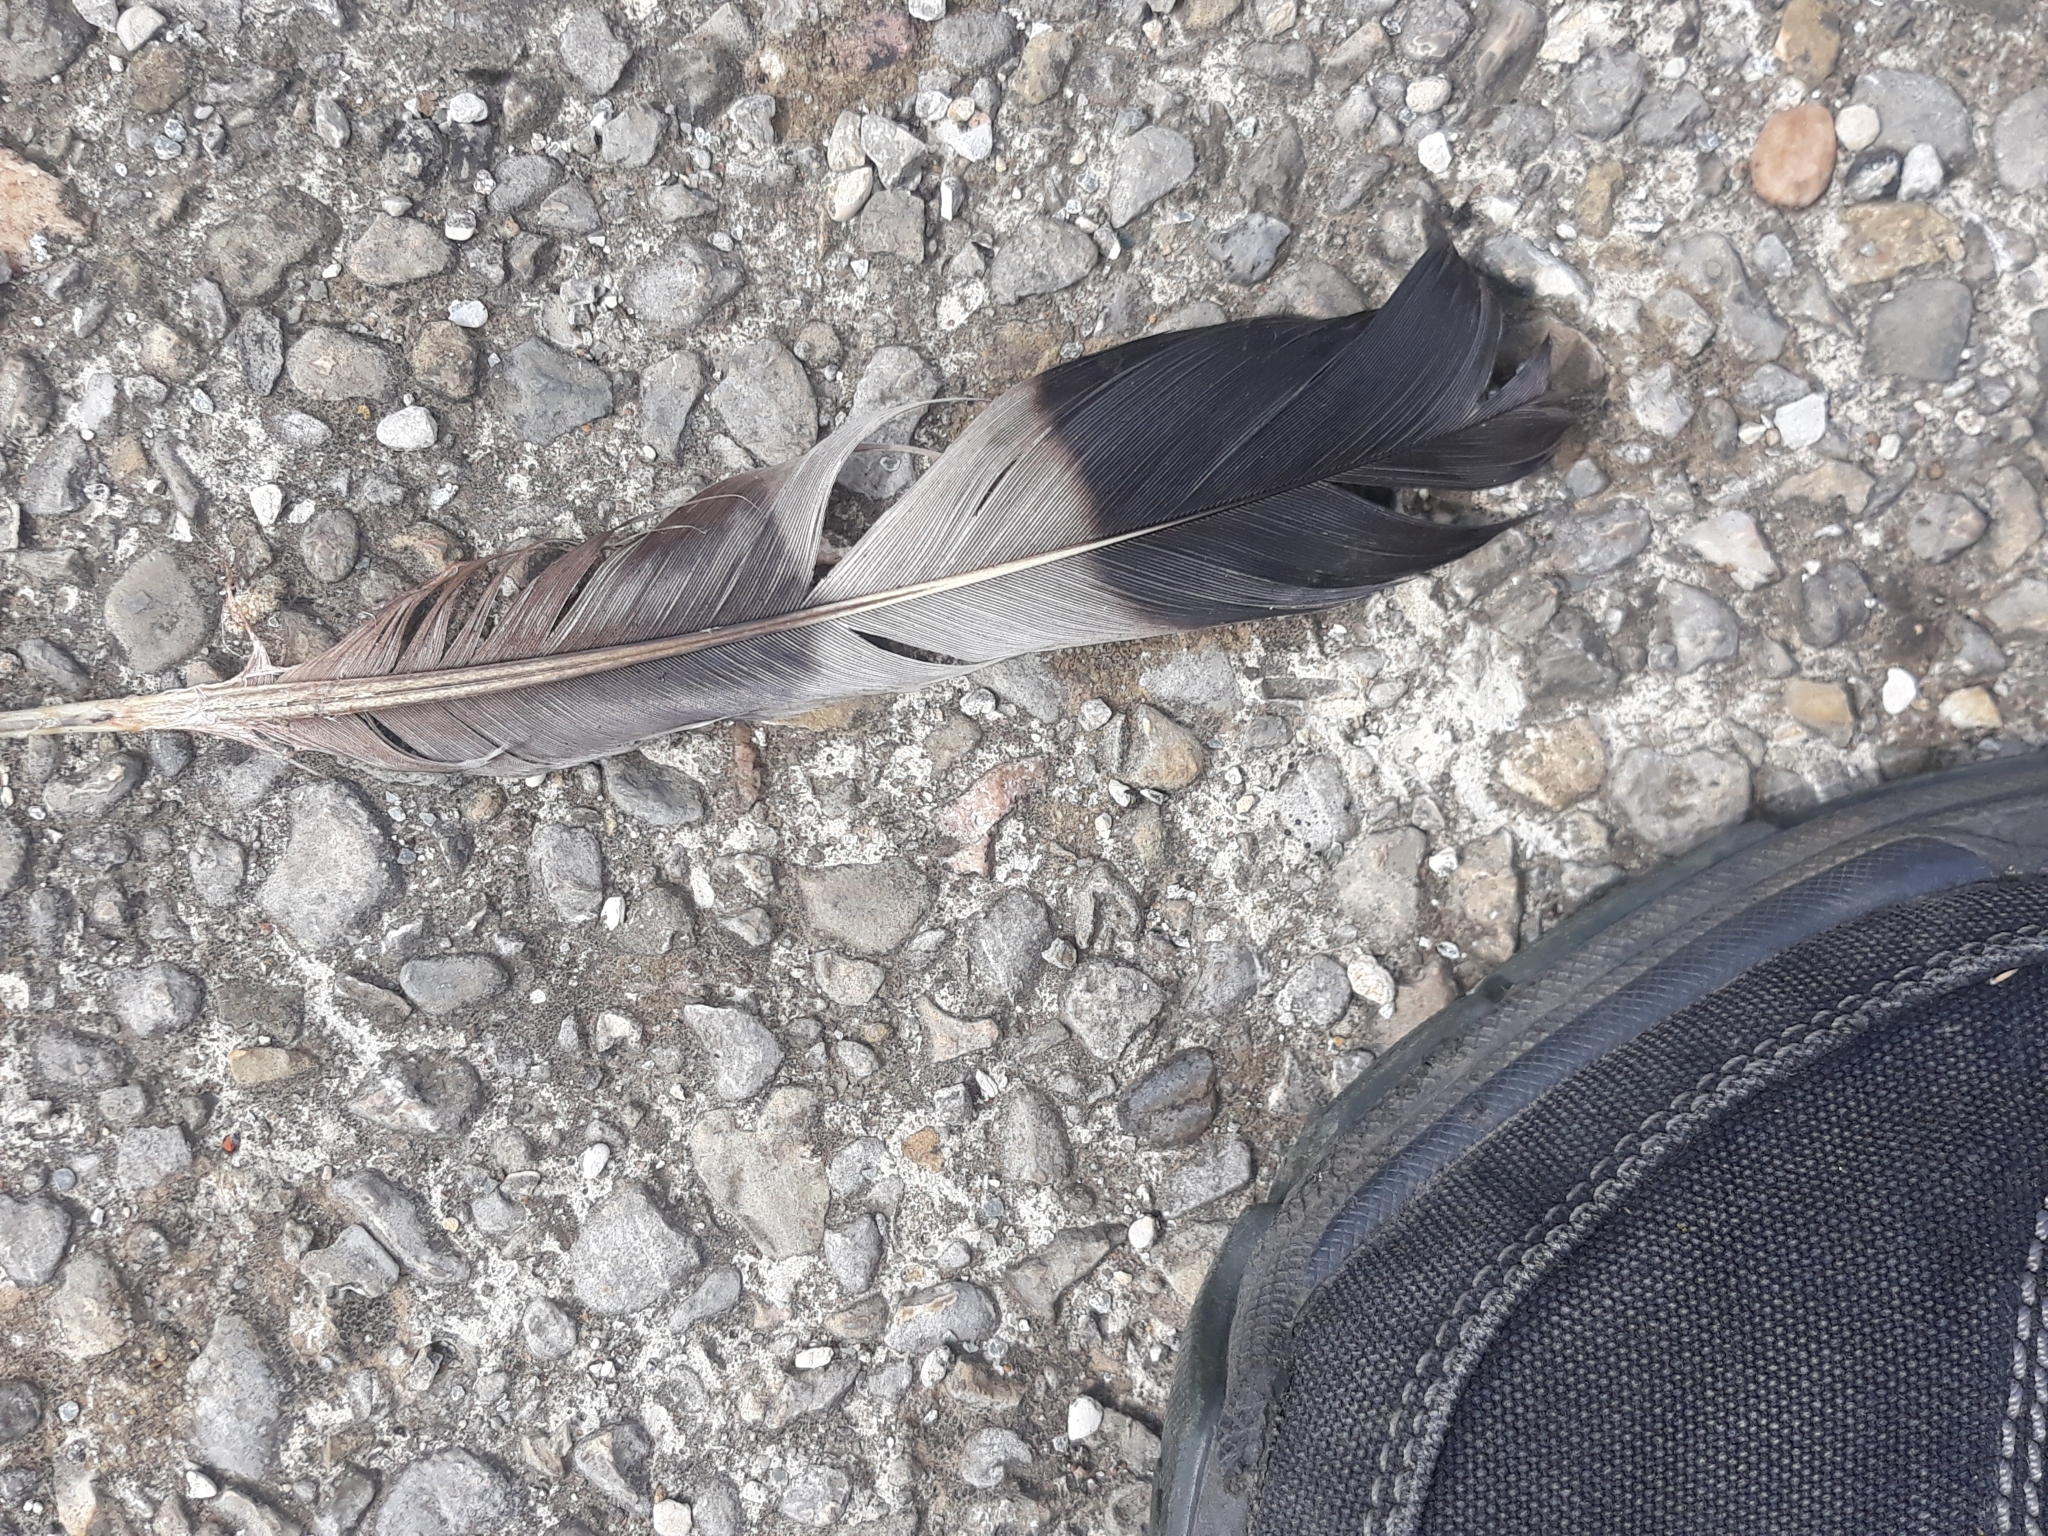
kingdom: Animalia
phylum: Chordata
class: Aves
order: Columbiformes
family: Columbidae
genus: Columba
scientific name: Columba palumbus
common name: Common wood pigeon
